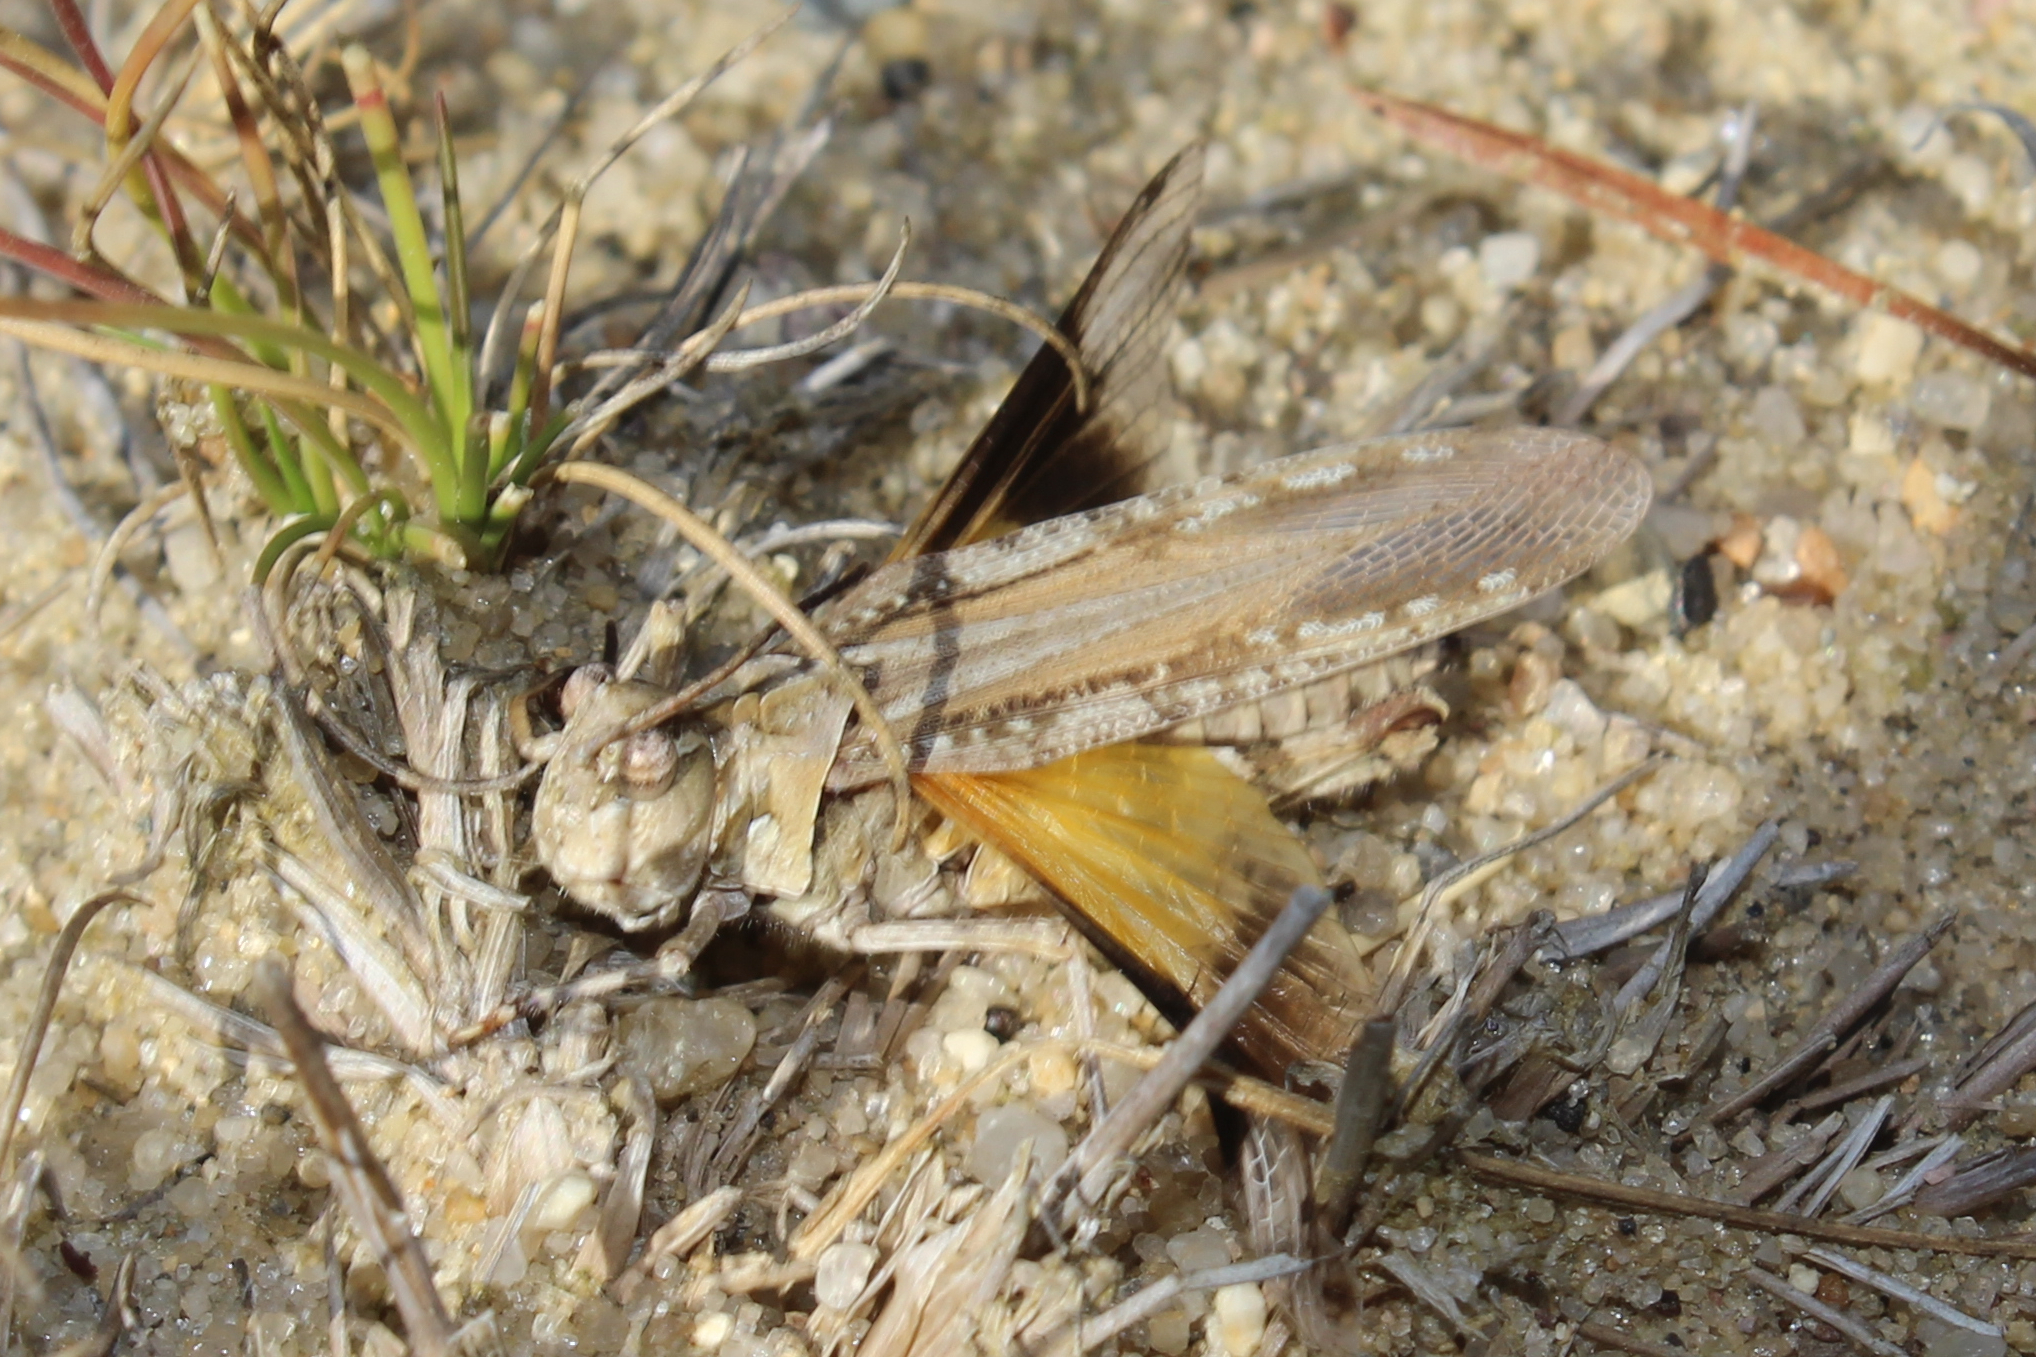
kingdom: Animalia
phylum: Arthropoda
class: Insecta
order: Orthoptera
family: Acrididae
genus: Psinidia
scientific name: Psinidia fenestralis
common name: Long-horned locust
